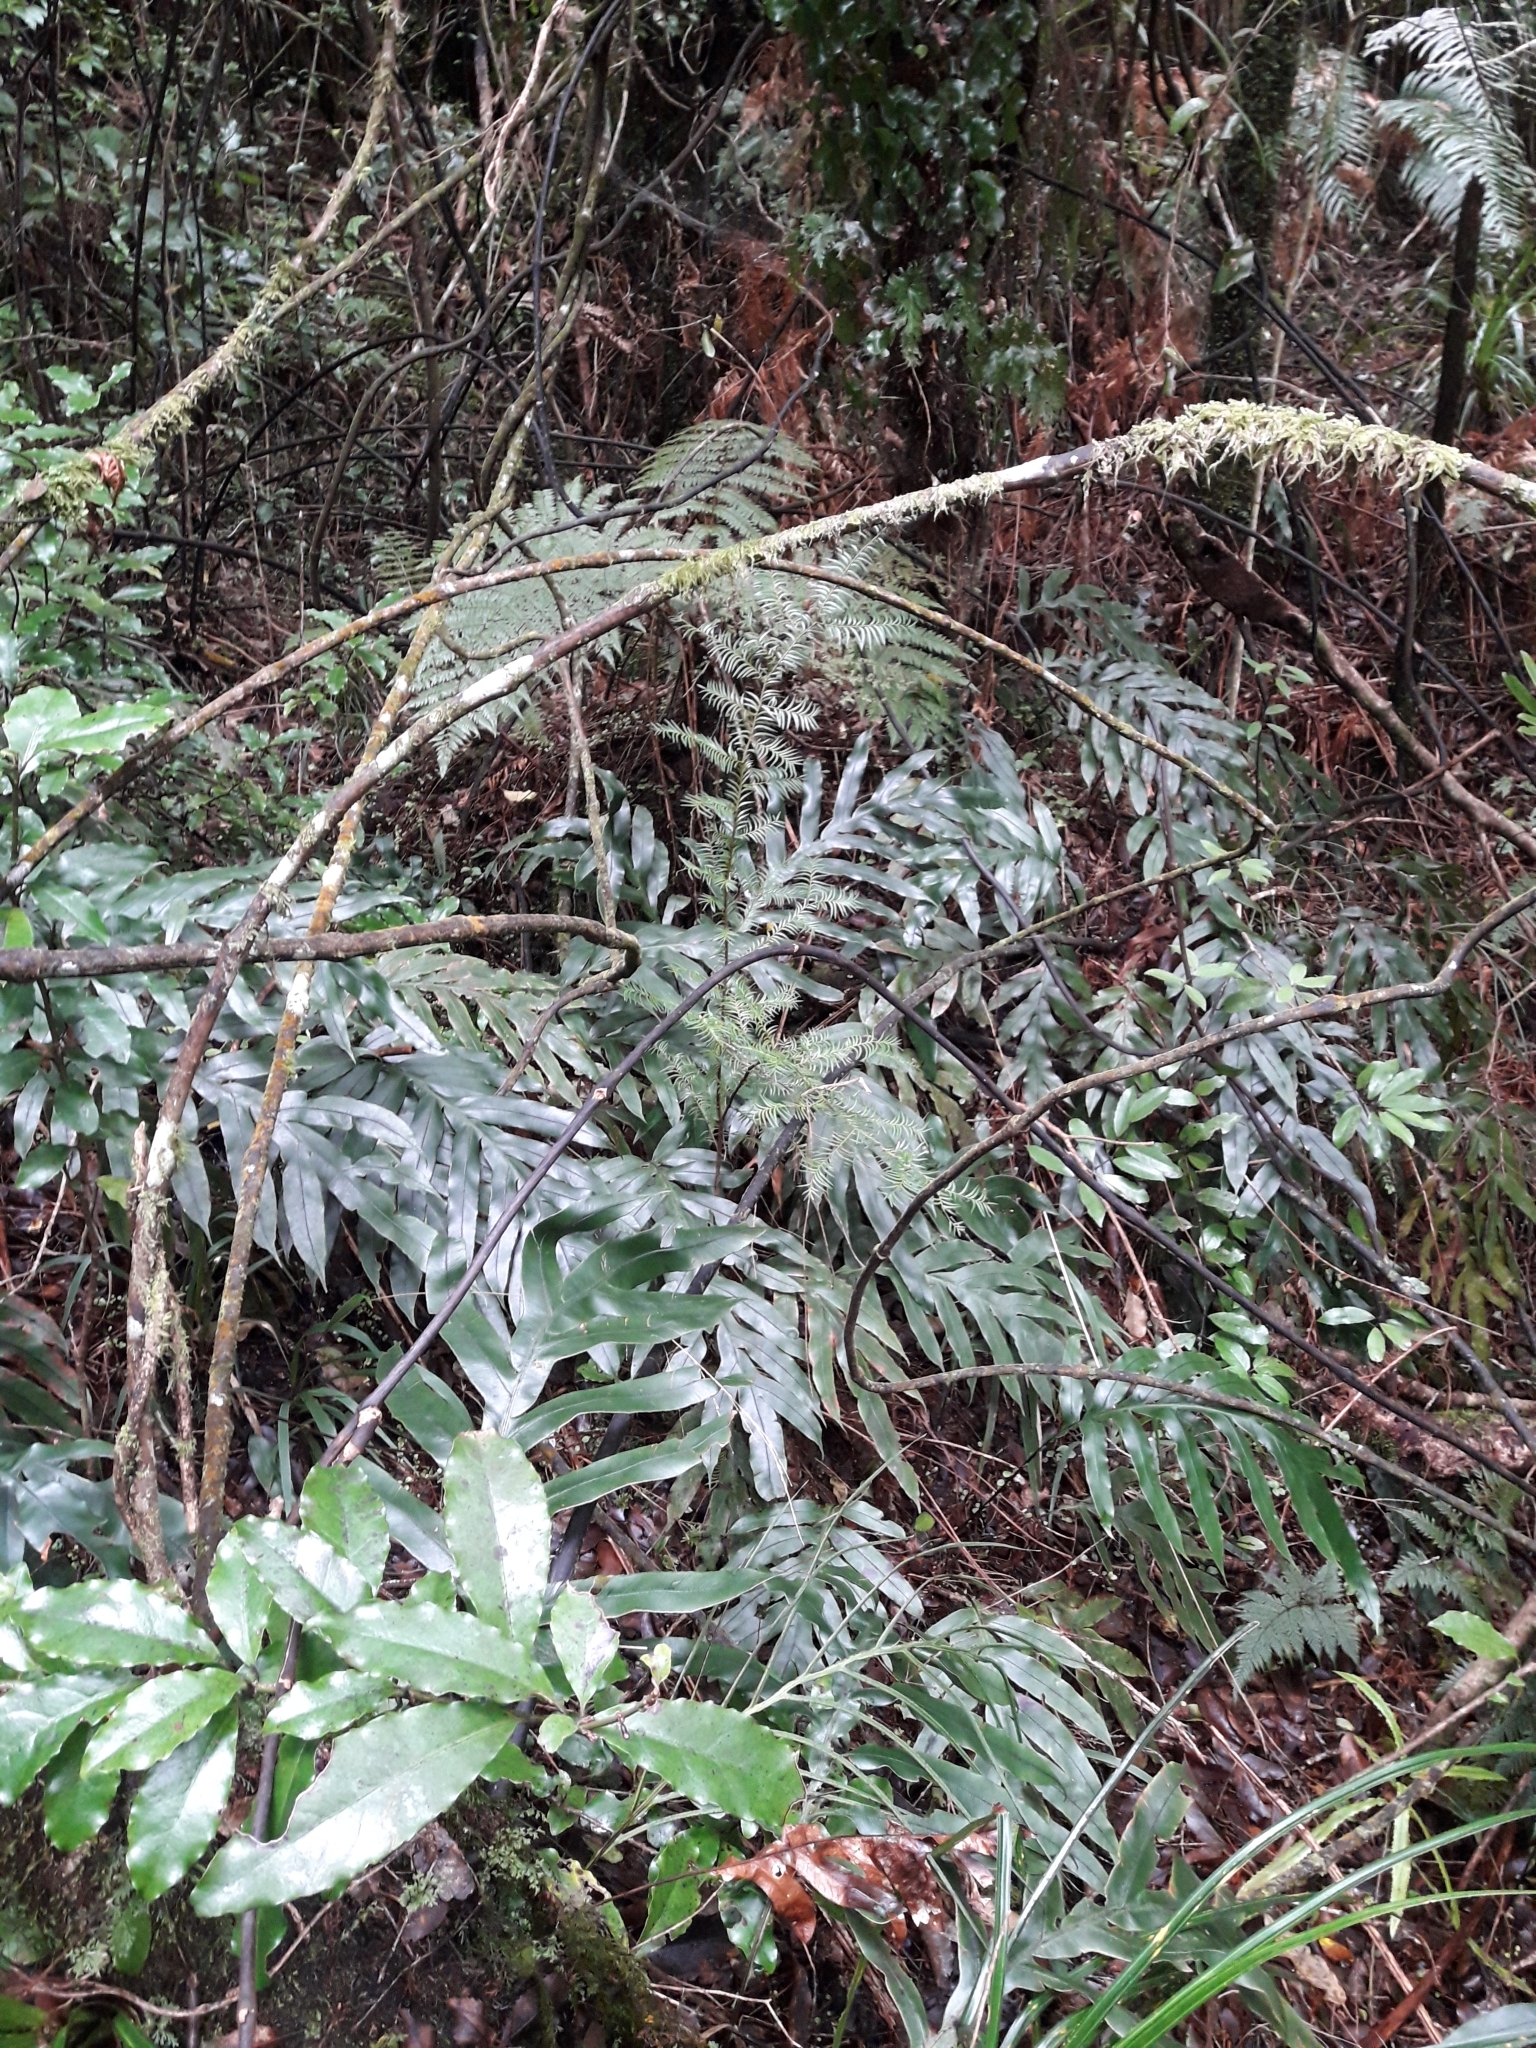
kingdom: Plantae
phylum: Tracheophyta
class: Polypodiopsida
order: Polypodiales
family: Blechnaceae
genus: Austroblechnum
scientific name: Austroblechnum colensoi
